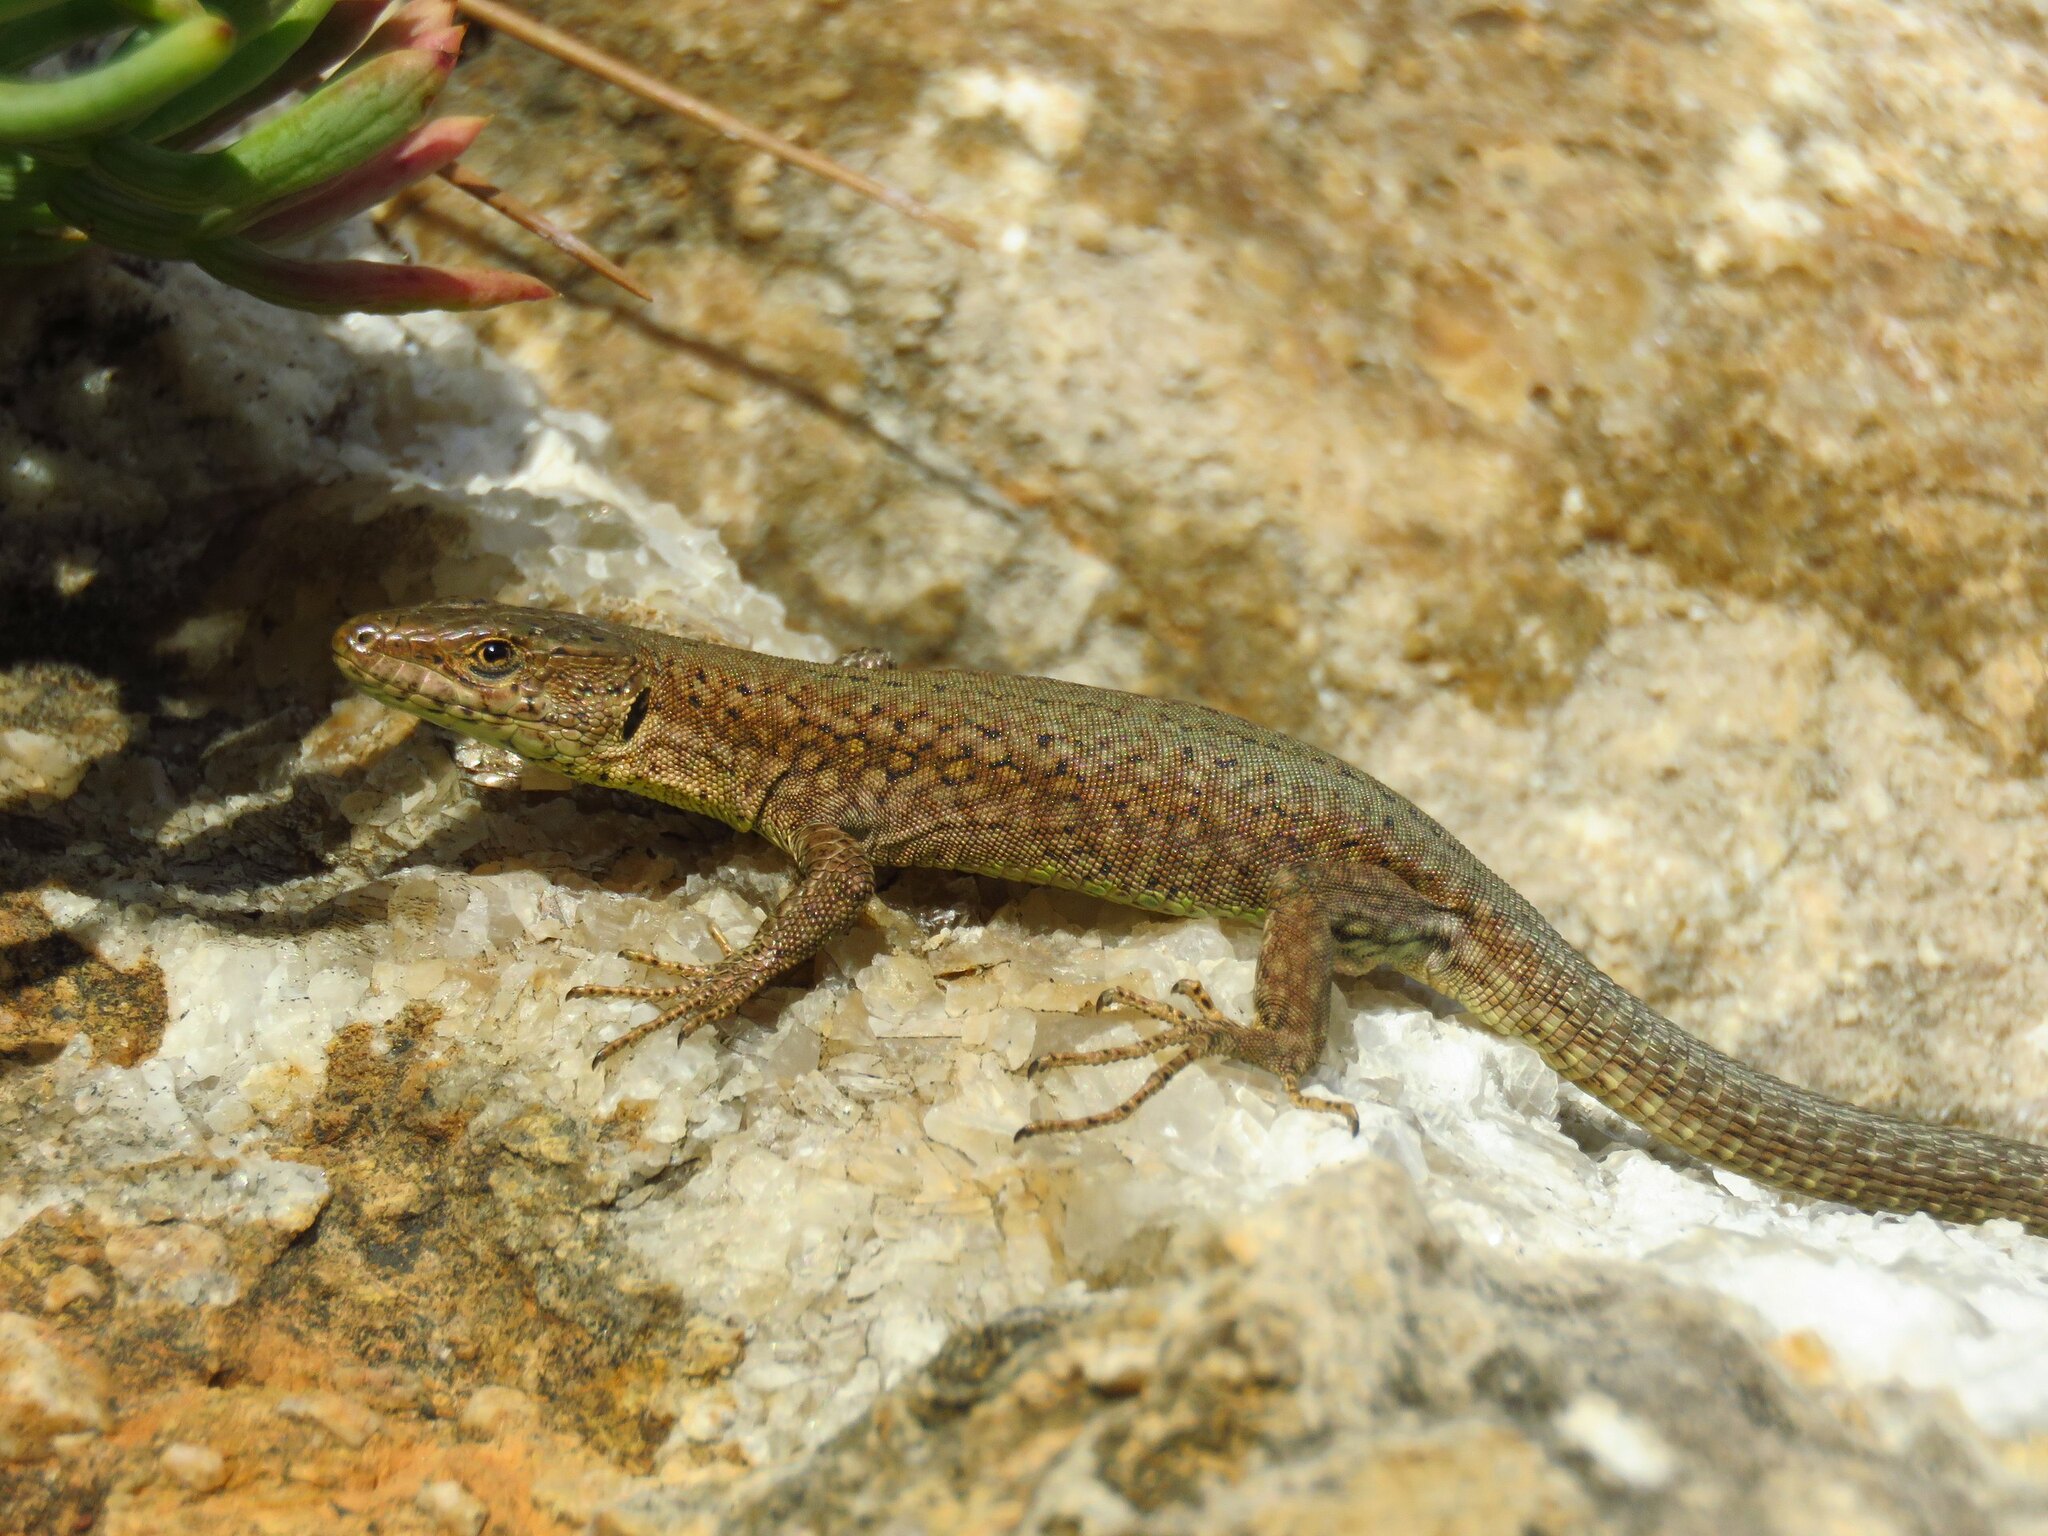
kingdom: Animalia
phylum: Chordata
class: Squamata
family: Lacertidae
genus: Podarcis
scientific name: Podarcis liolepis
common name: Catalonian wall lizard
